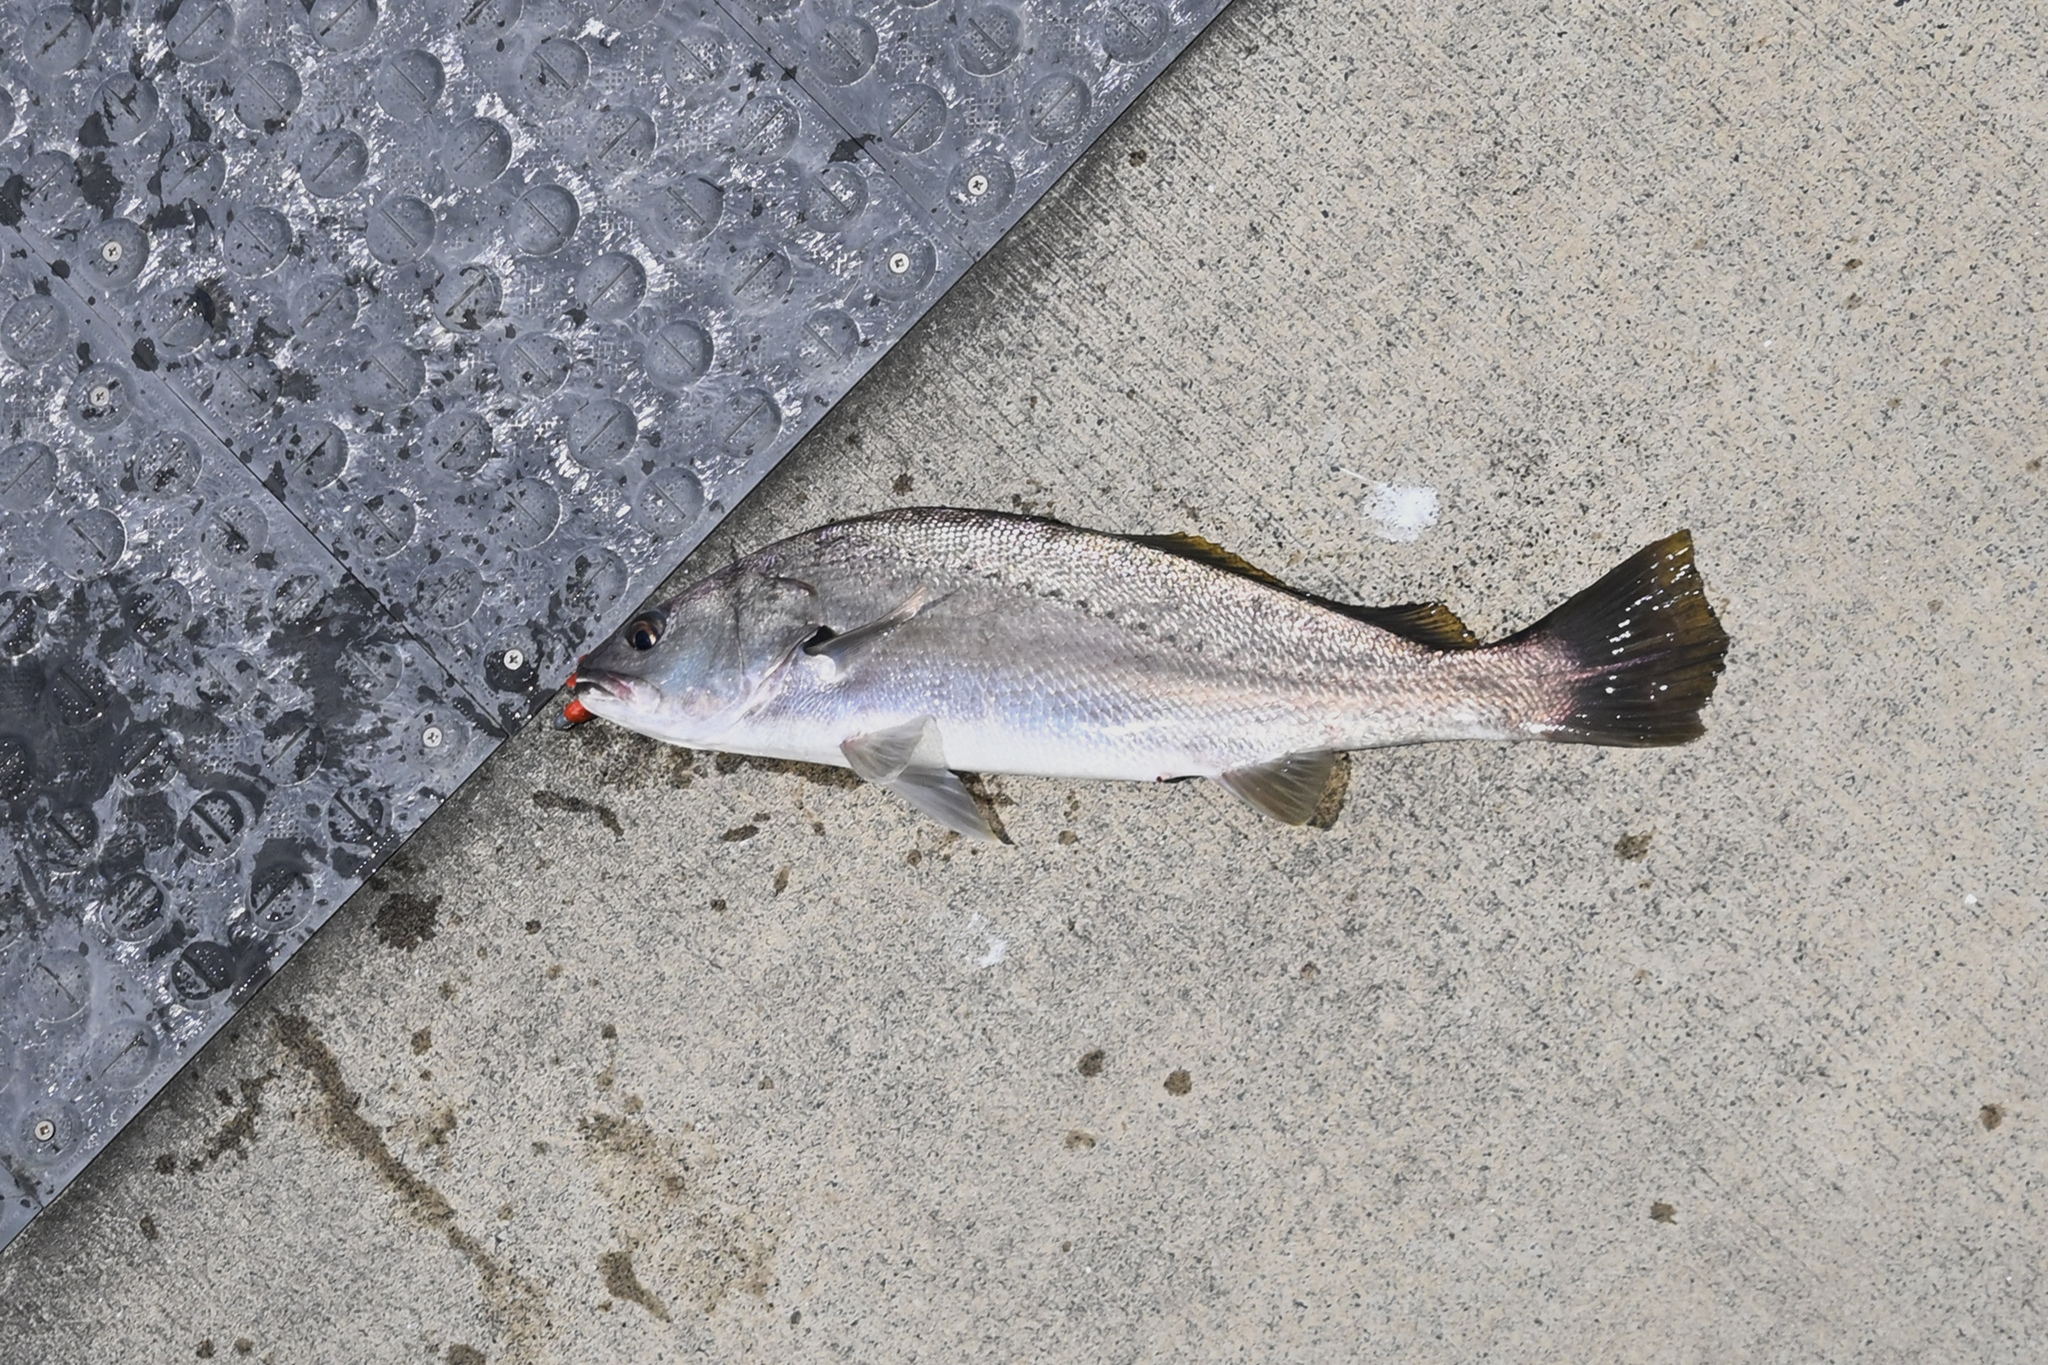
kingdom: Animalia
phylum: Chordata
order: Perciformes
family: Sciaenidae
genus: Argyrosomus
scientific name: Argyrosomus japonicus
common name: Japanese meagre
